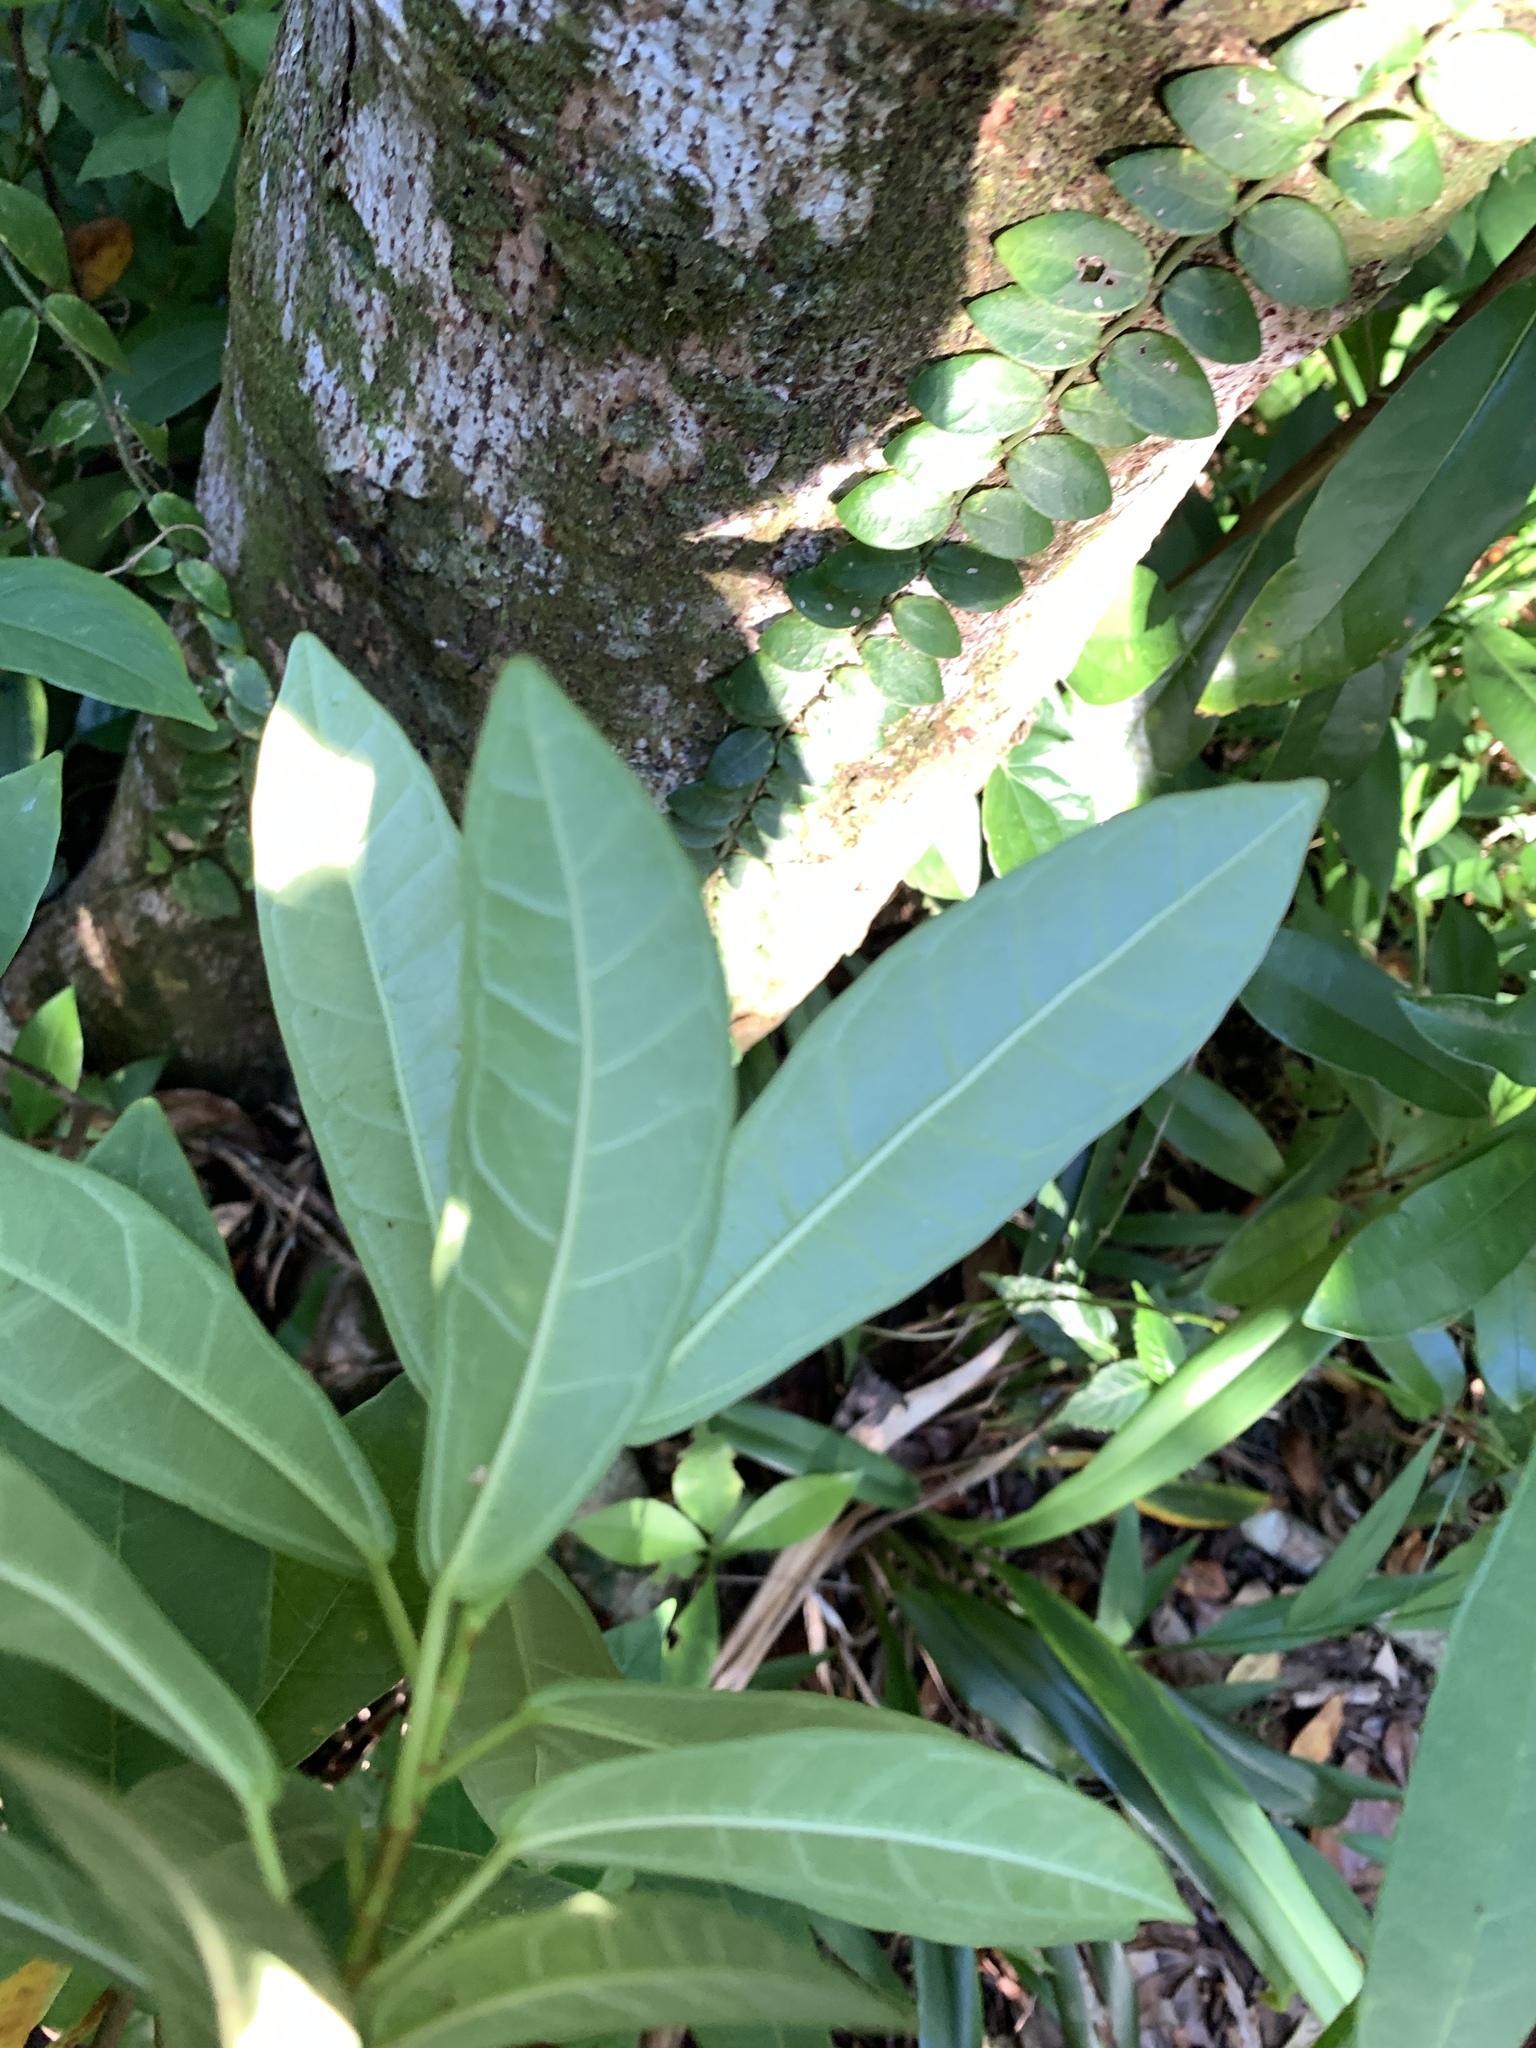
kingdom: Plantae
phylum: Tracheophyta
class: Magnoliopsida
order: Rosales
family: Moraceae
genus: Ficus
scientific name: Ficus erecta
